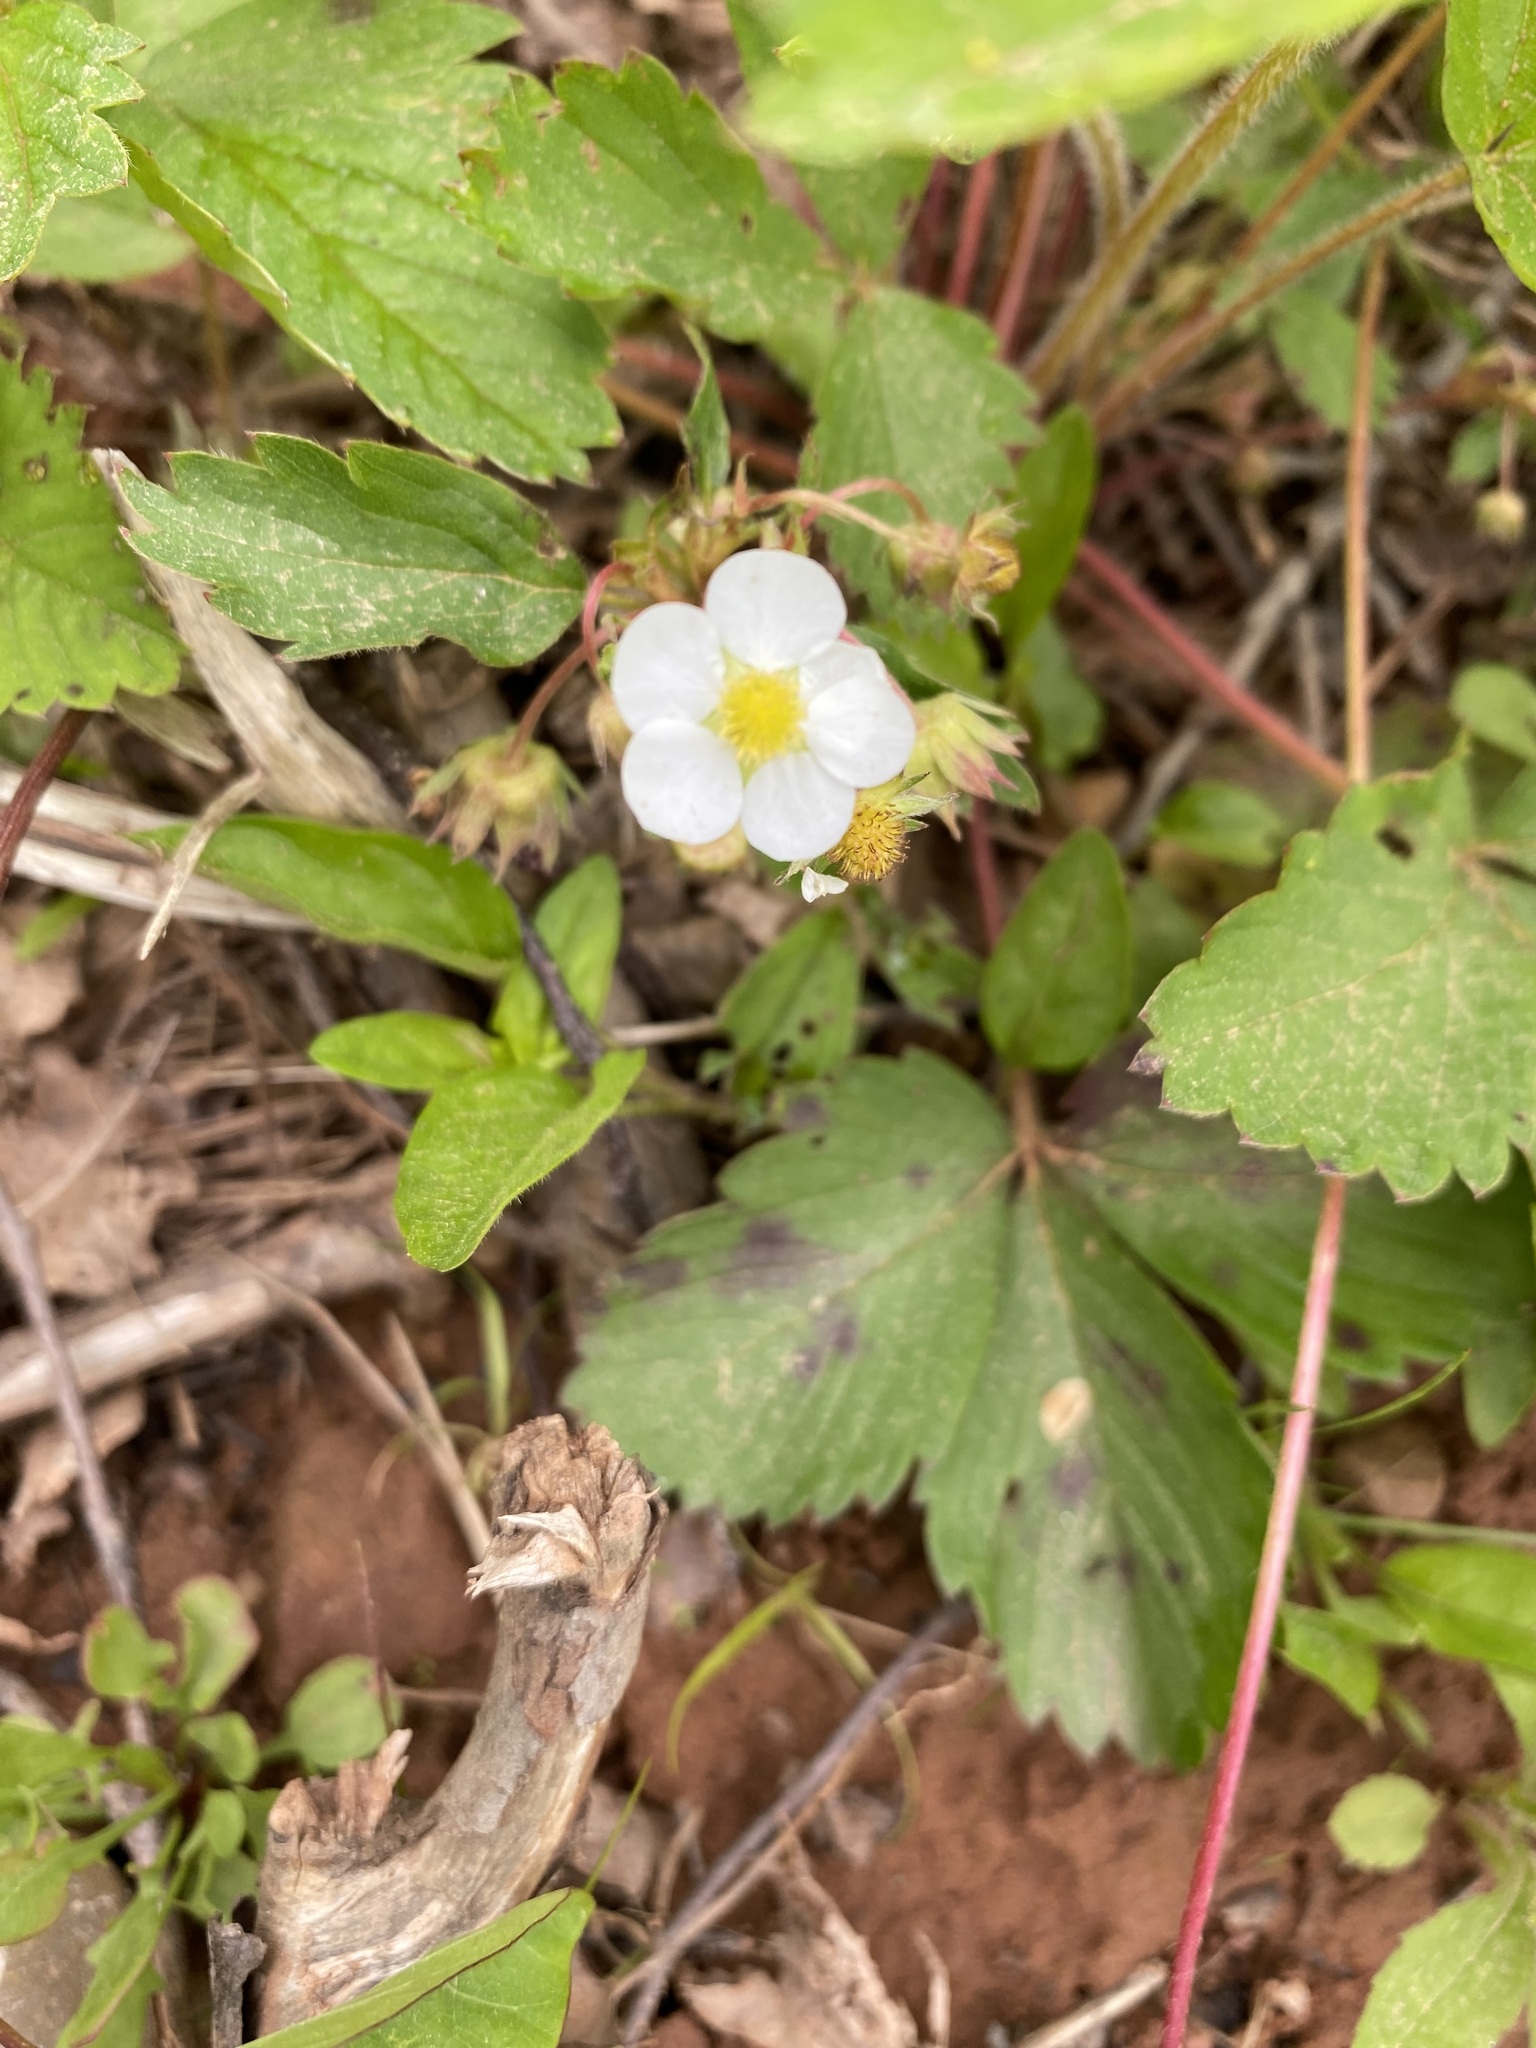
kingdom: Plantae
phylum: Tracheophyta
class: Magnoliopsida
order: Rosales
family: Rosaceae
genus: Fragaria
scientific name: Fragaria virginiana
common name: Thickleaved wild strawberry
